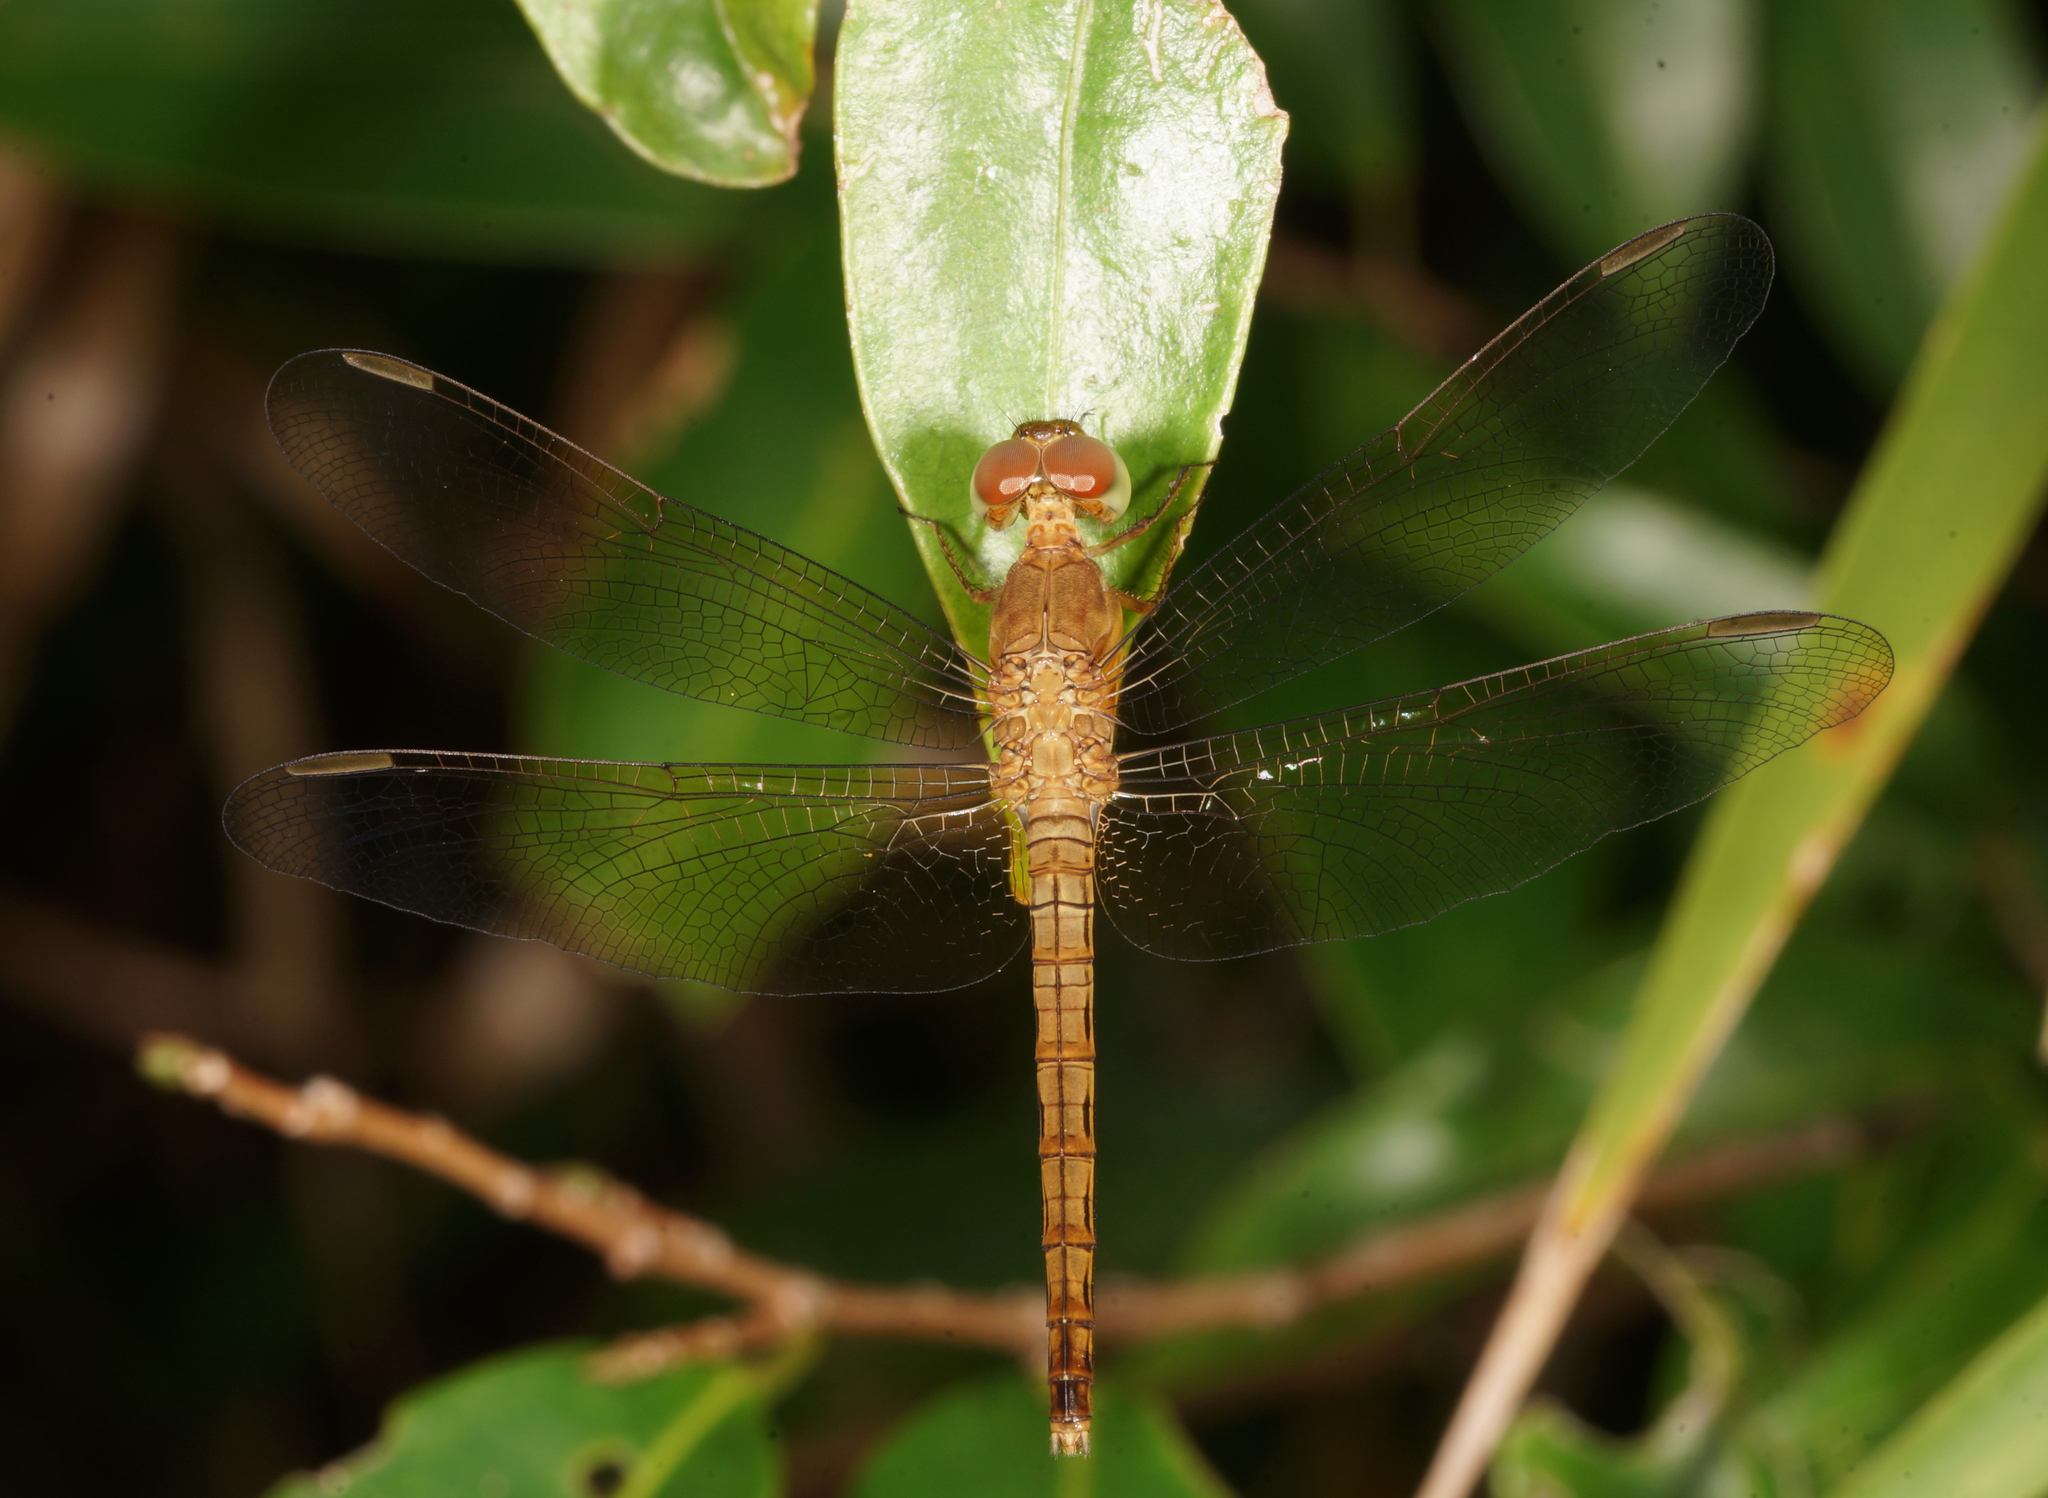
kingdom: Animalia
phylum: Arthropoda
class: Insecta
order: Odonata
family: Libellulidae
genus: Neurothemis
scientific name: Neurothemis fluctuans
